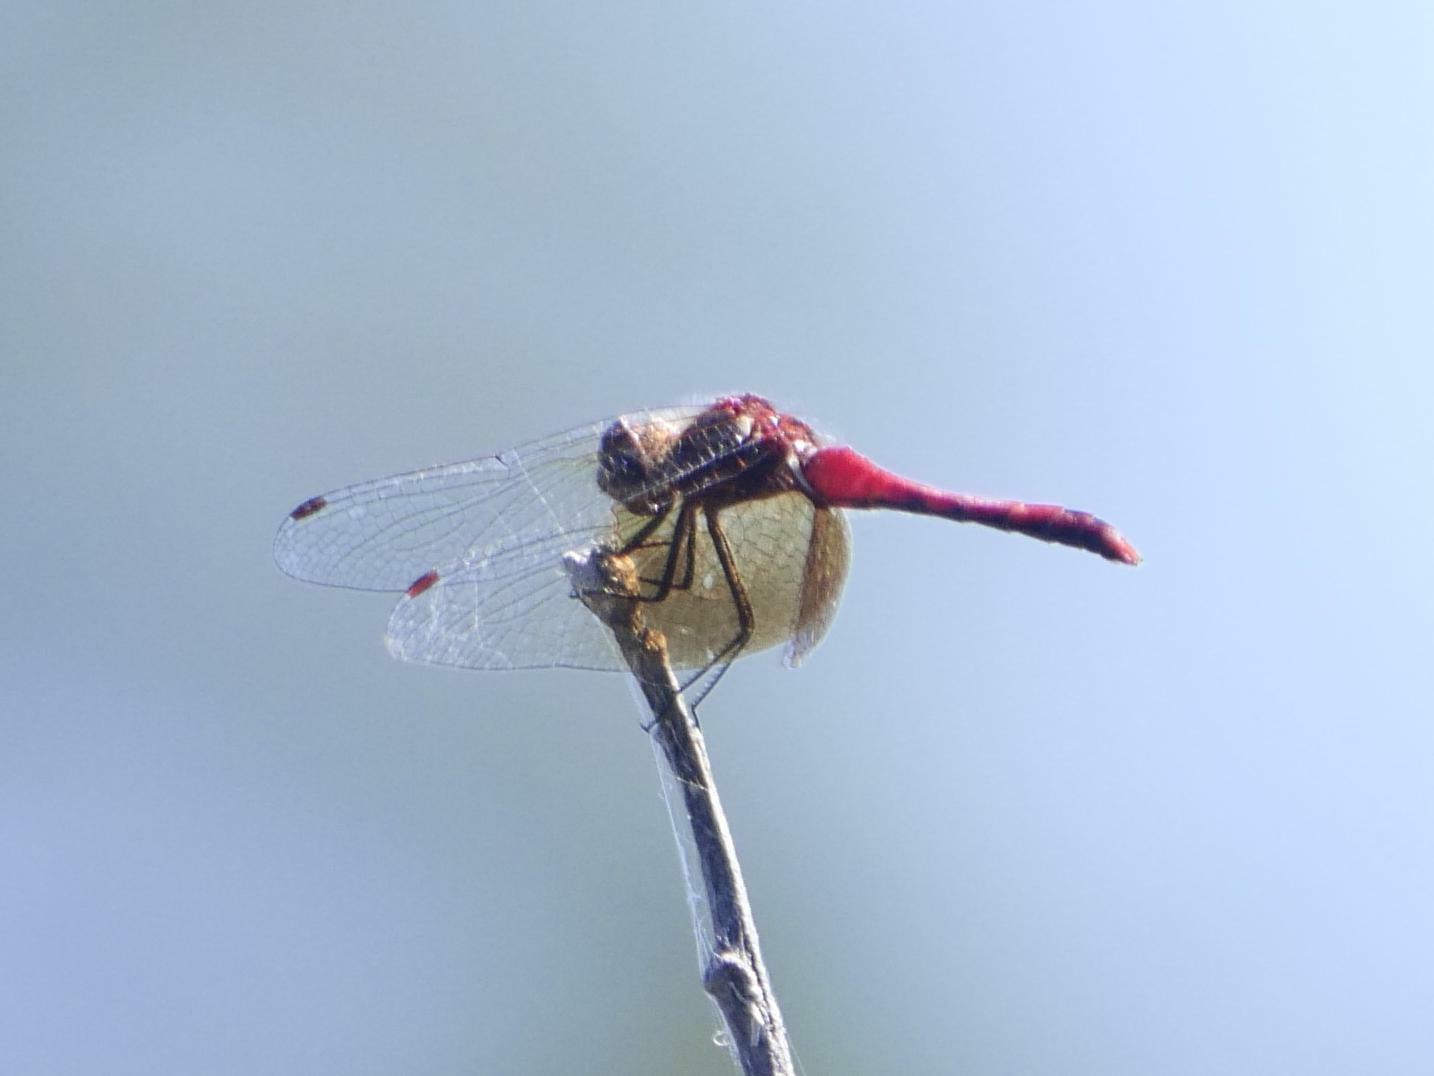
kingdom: Animalia
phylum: Arthropoda
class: Insecta
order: Odonata
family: Libellulidae
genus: Sympetrum
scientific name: Sympetrum semicinctum
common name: Band-winged meadowhawk
